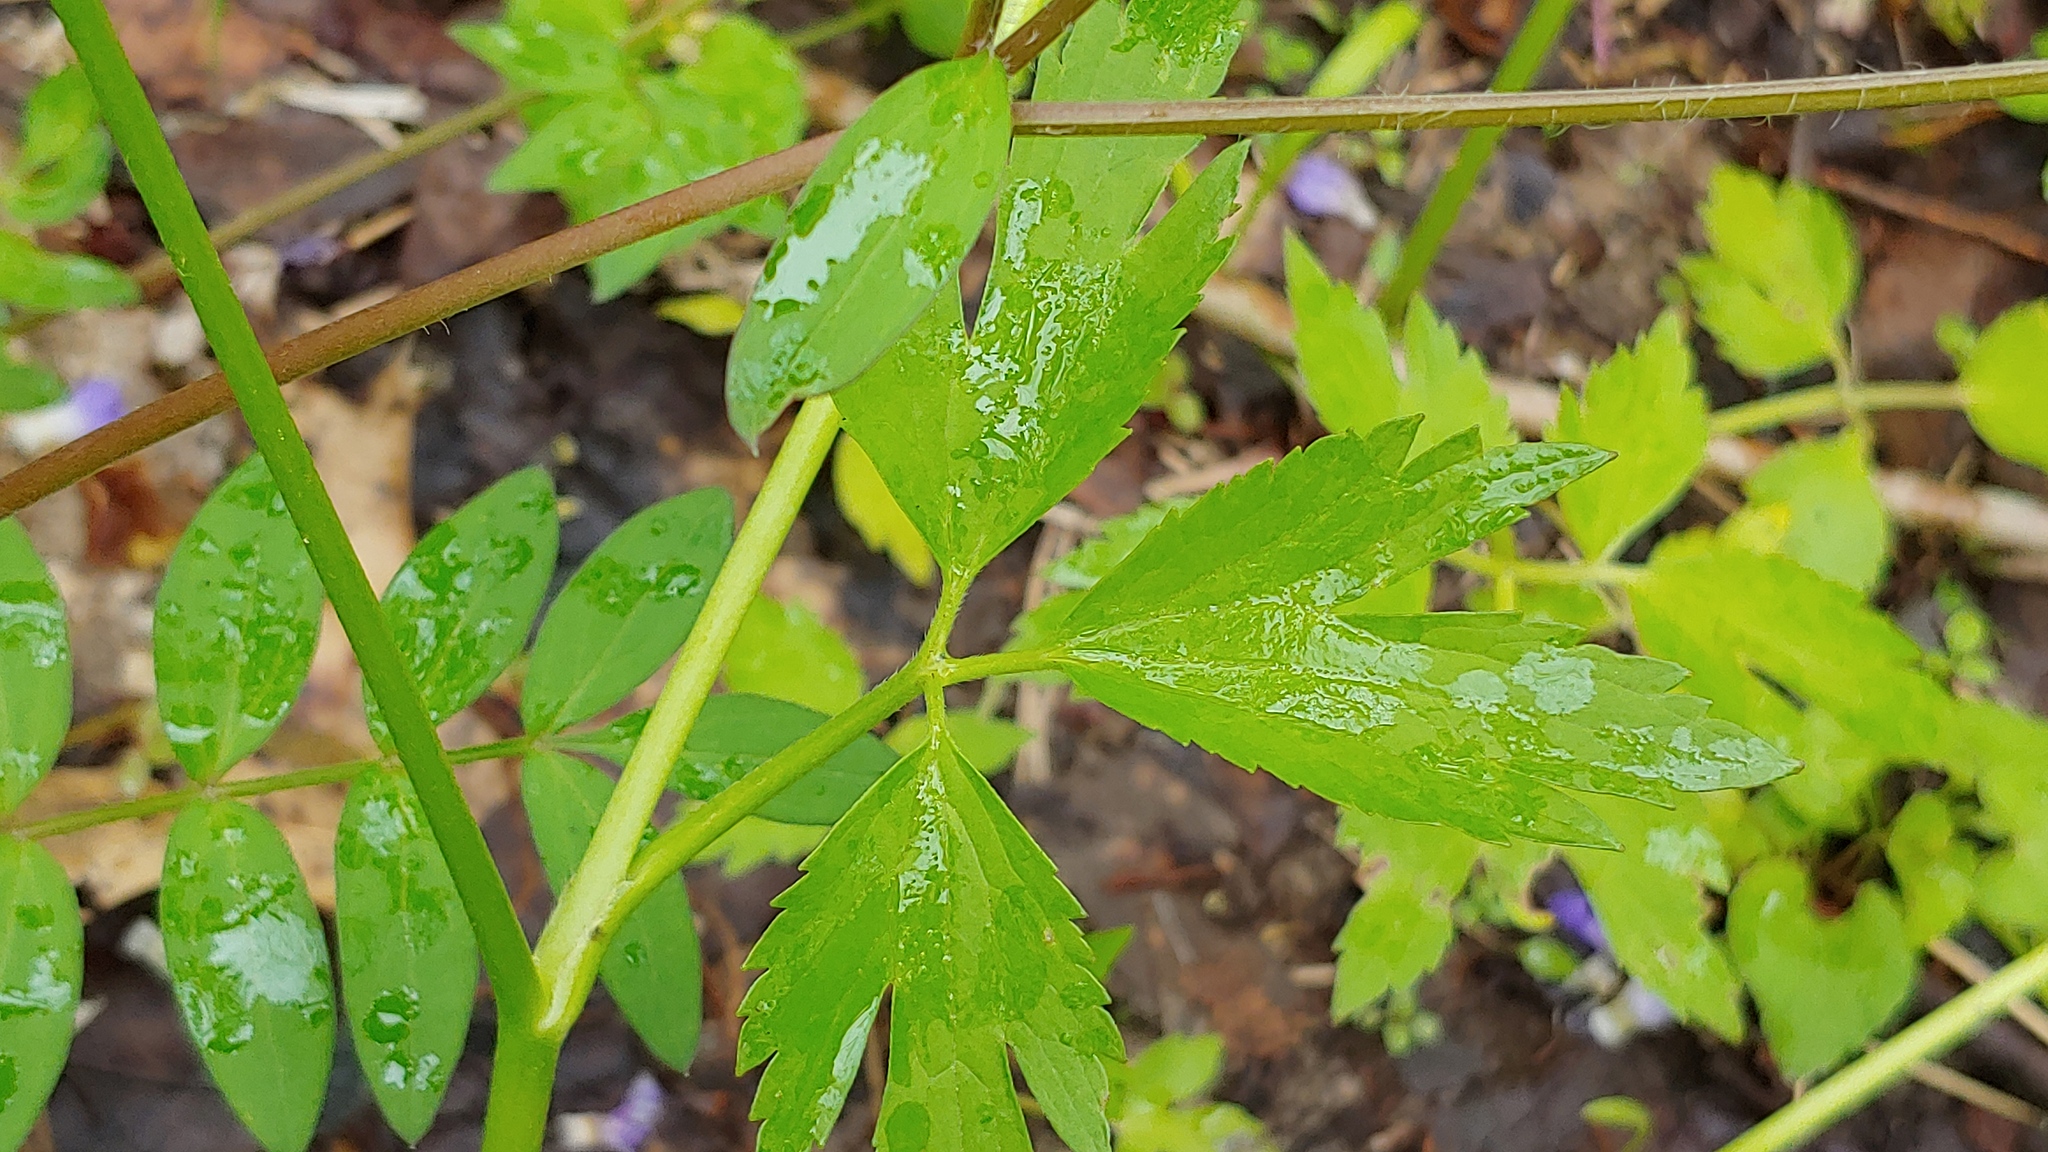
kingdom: Plantae
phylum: Tracheophyta
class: Magnoliopsida
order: Ranunculales
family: Ranunculaceae
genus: Ranunculus
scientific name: Ranunculus hispidus
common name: Bristly buttercup
